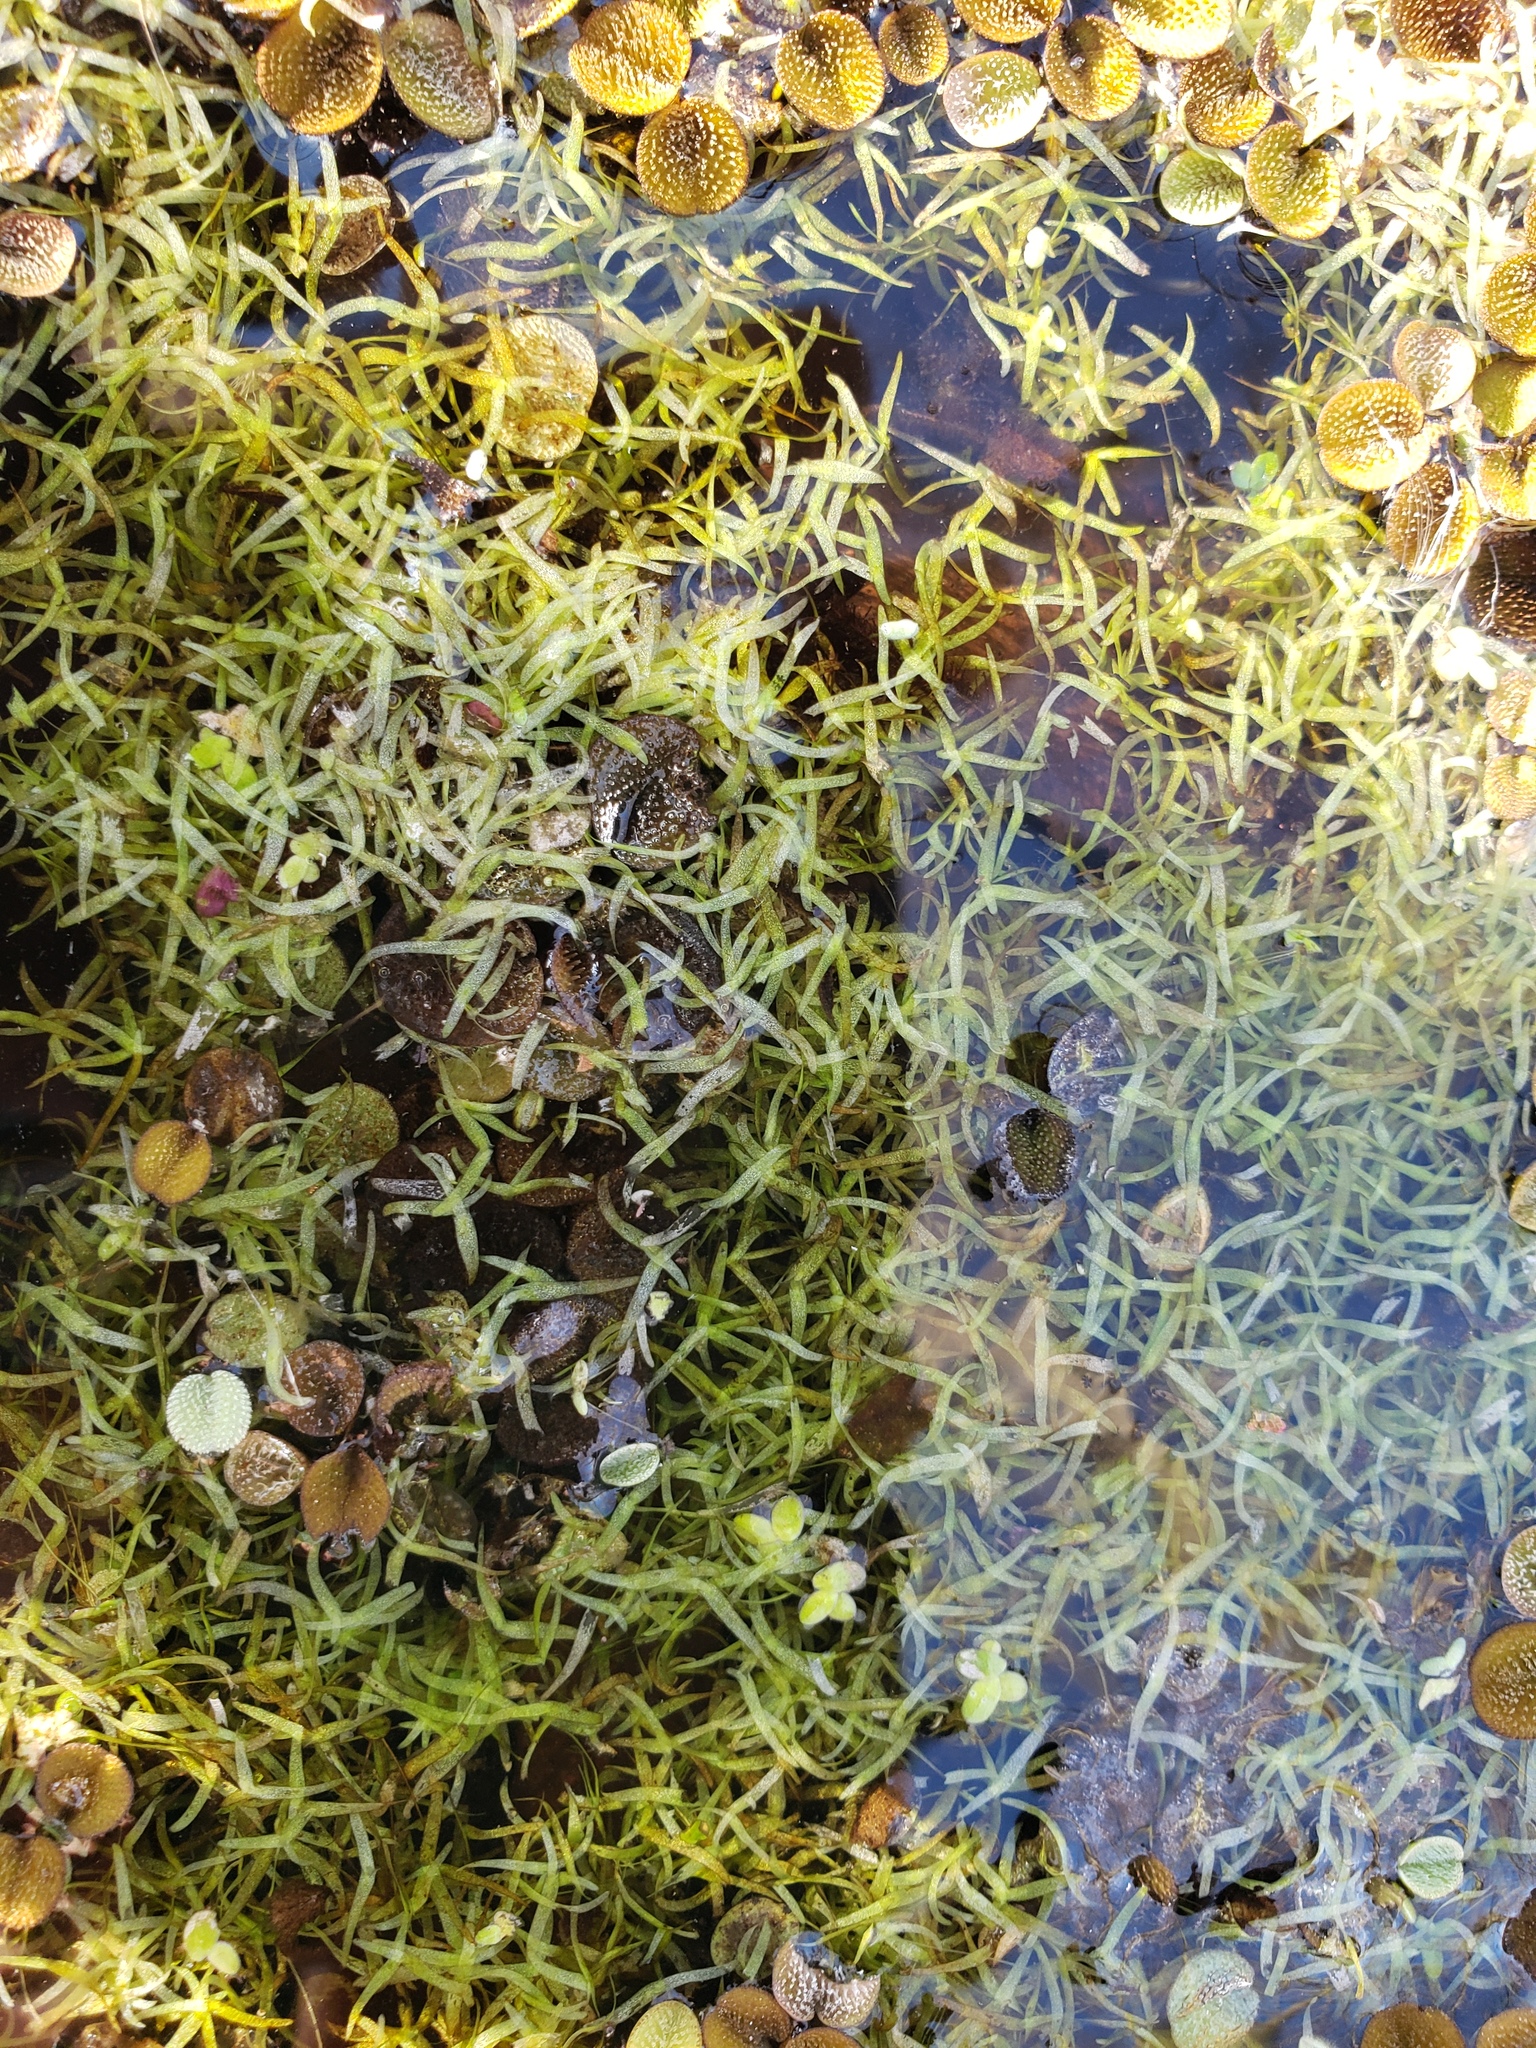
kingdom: Plantae
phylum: Tracheophyta
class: Liliopsida
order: Alismatales
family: Araceae
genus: Wolffiella
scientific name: Wolffiella gladiata
